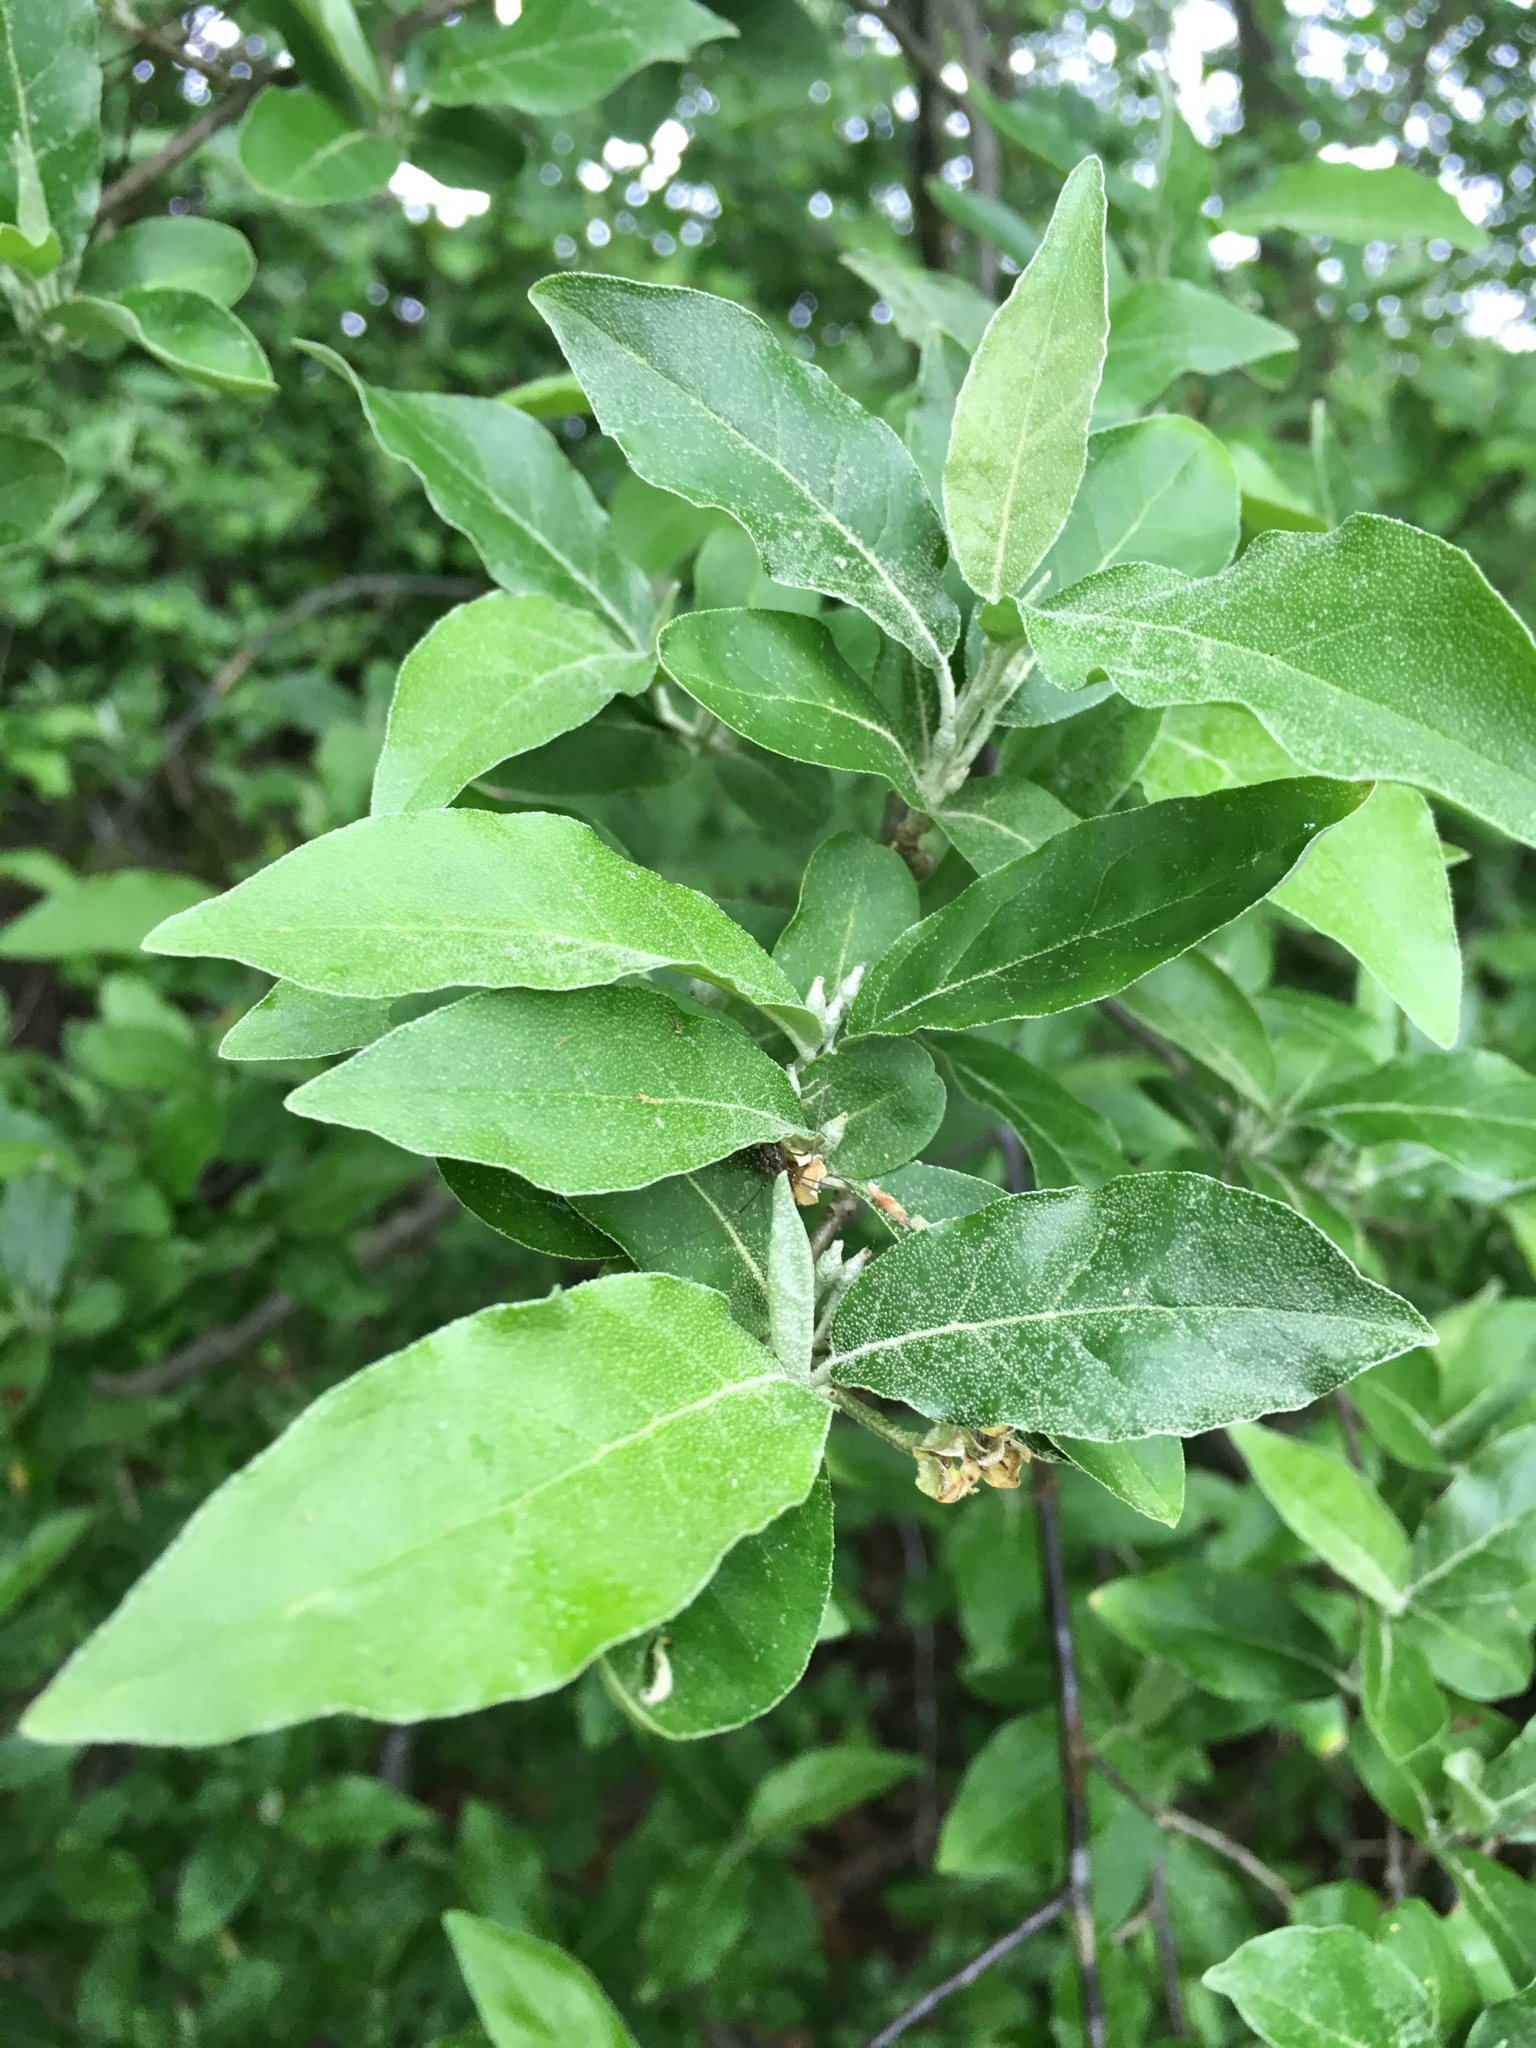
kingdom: Plantae
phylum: Tracheophyta
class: Magnoliopsida
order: Rosales
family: Elaeagnaceae
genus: Elaeagnus
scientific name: Elaeagnus umbellata
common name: Autumn olive
